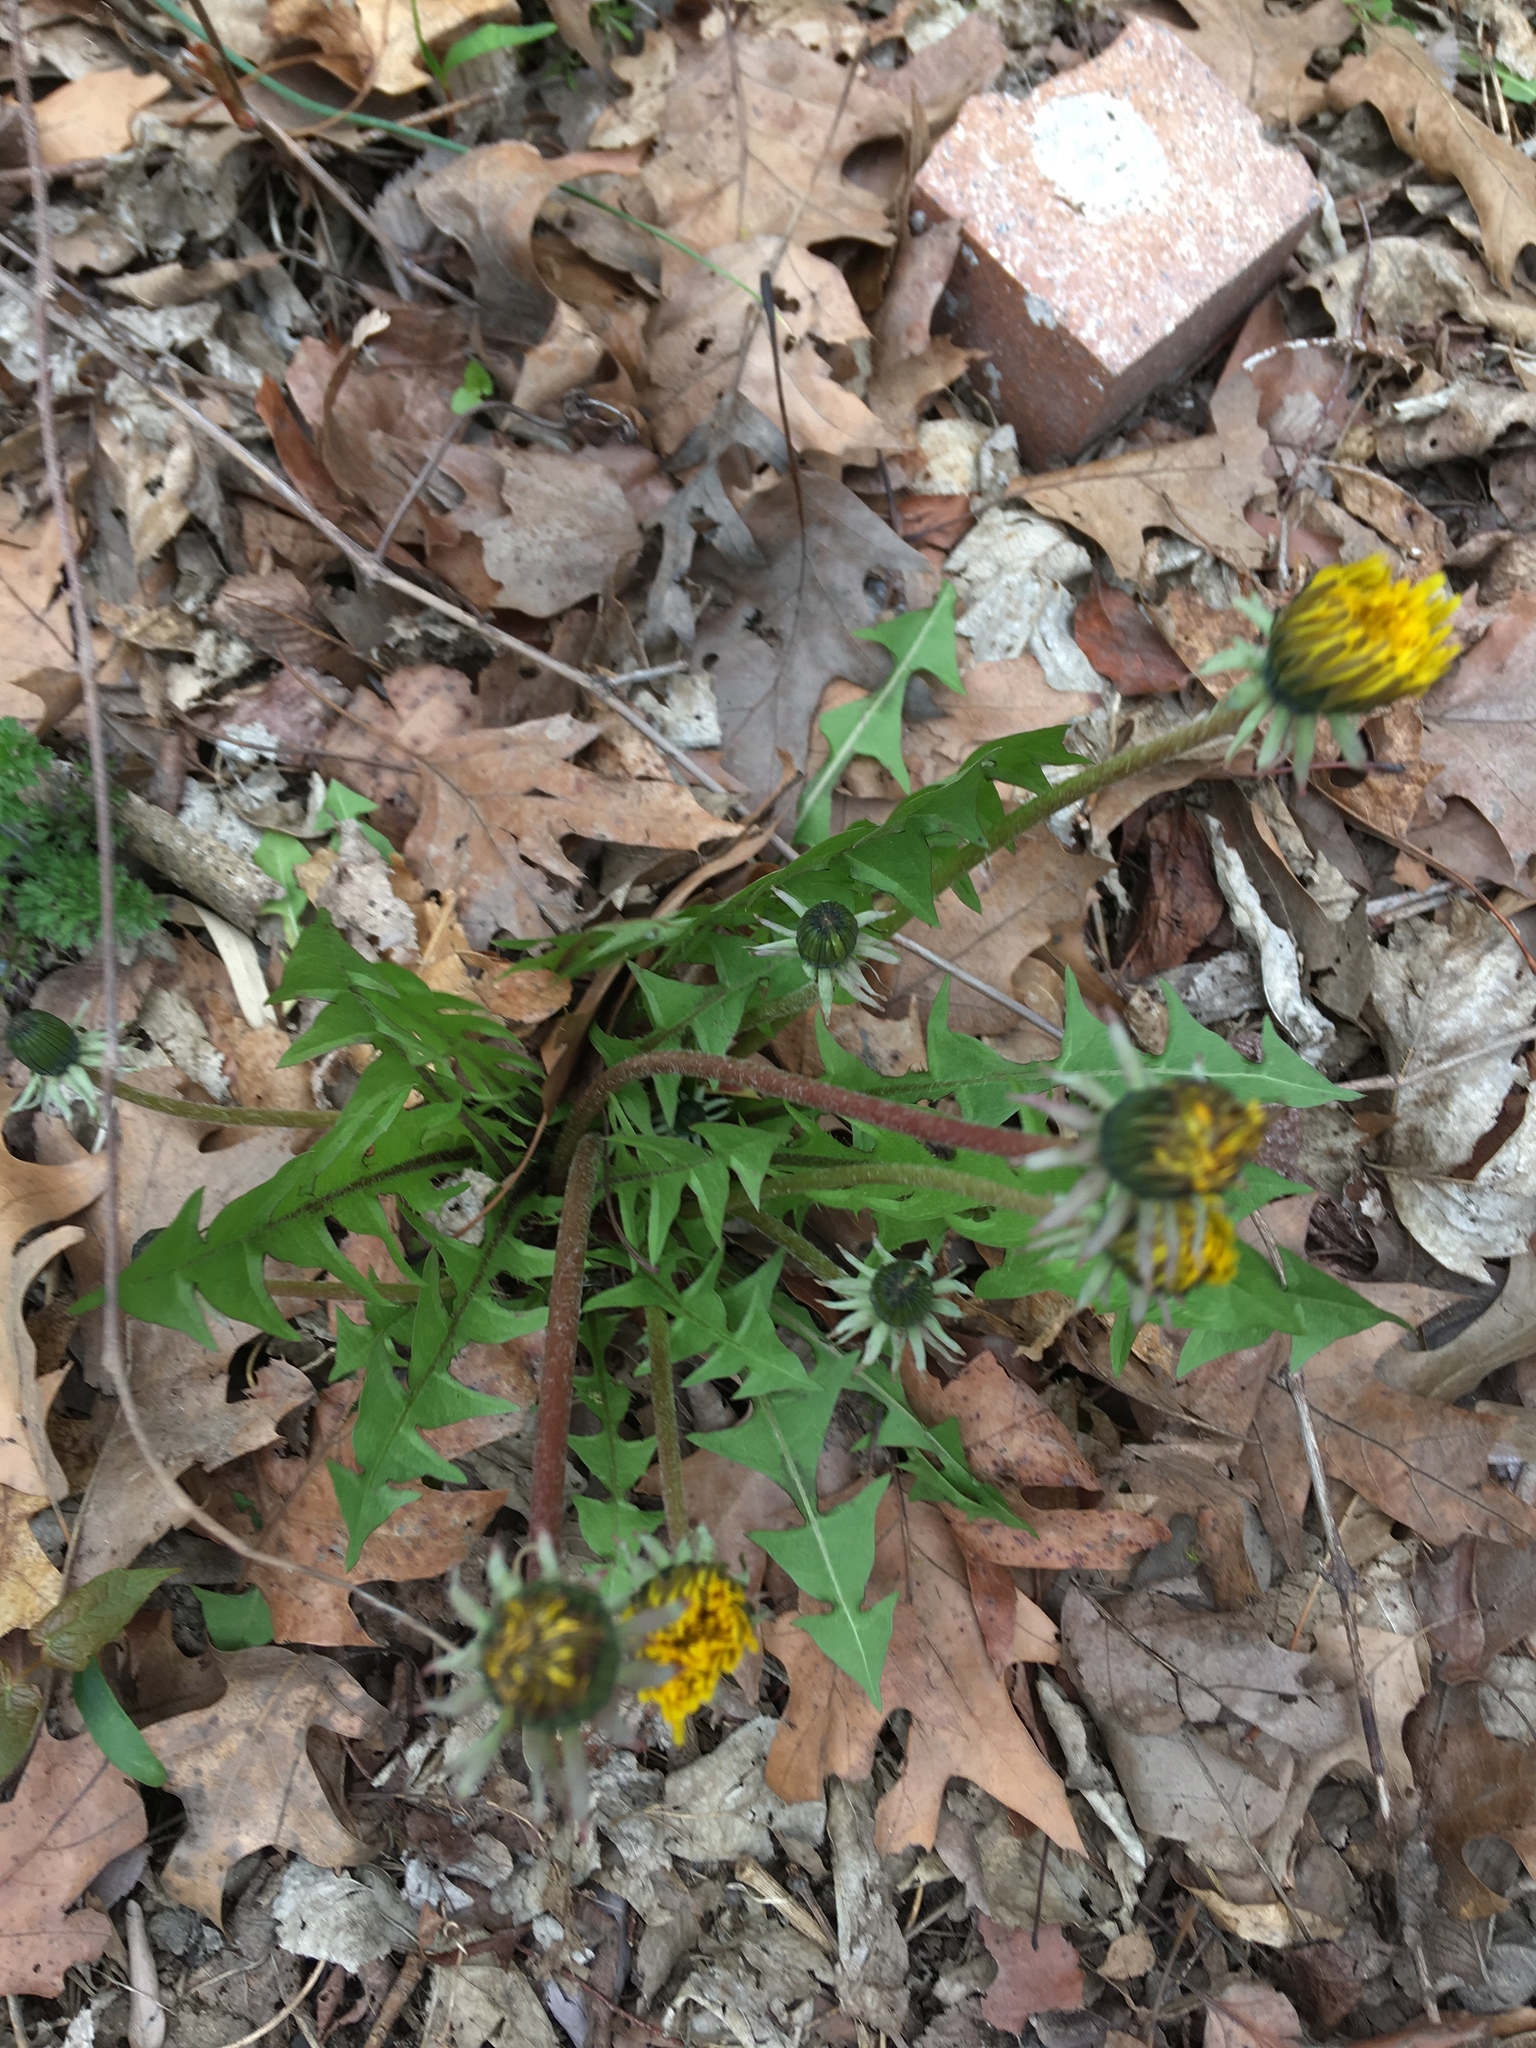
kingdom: Plantae
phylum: Tracheophyta
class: Magnoliopsida
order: Asterales
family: Asteraceae
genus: Taraxacum
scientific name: Taraxacum officinale
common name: Common dandelion
